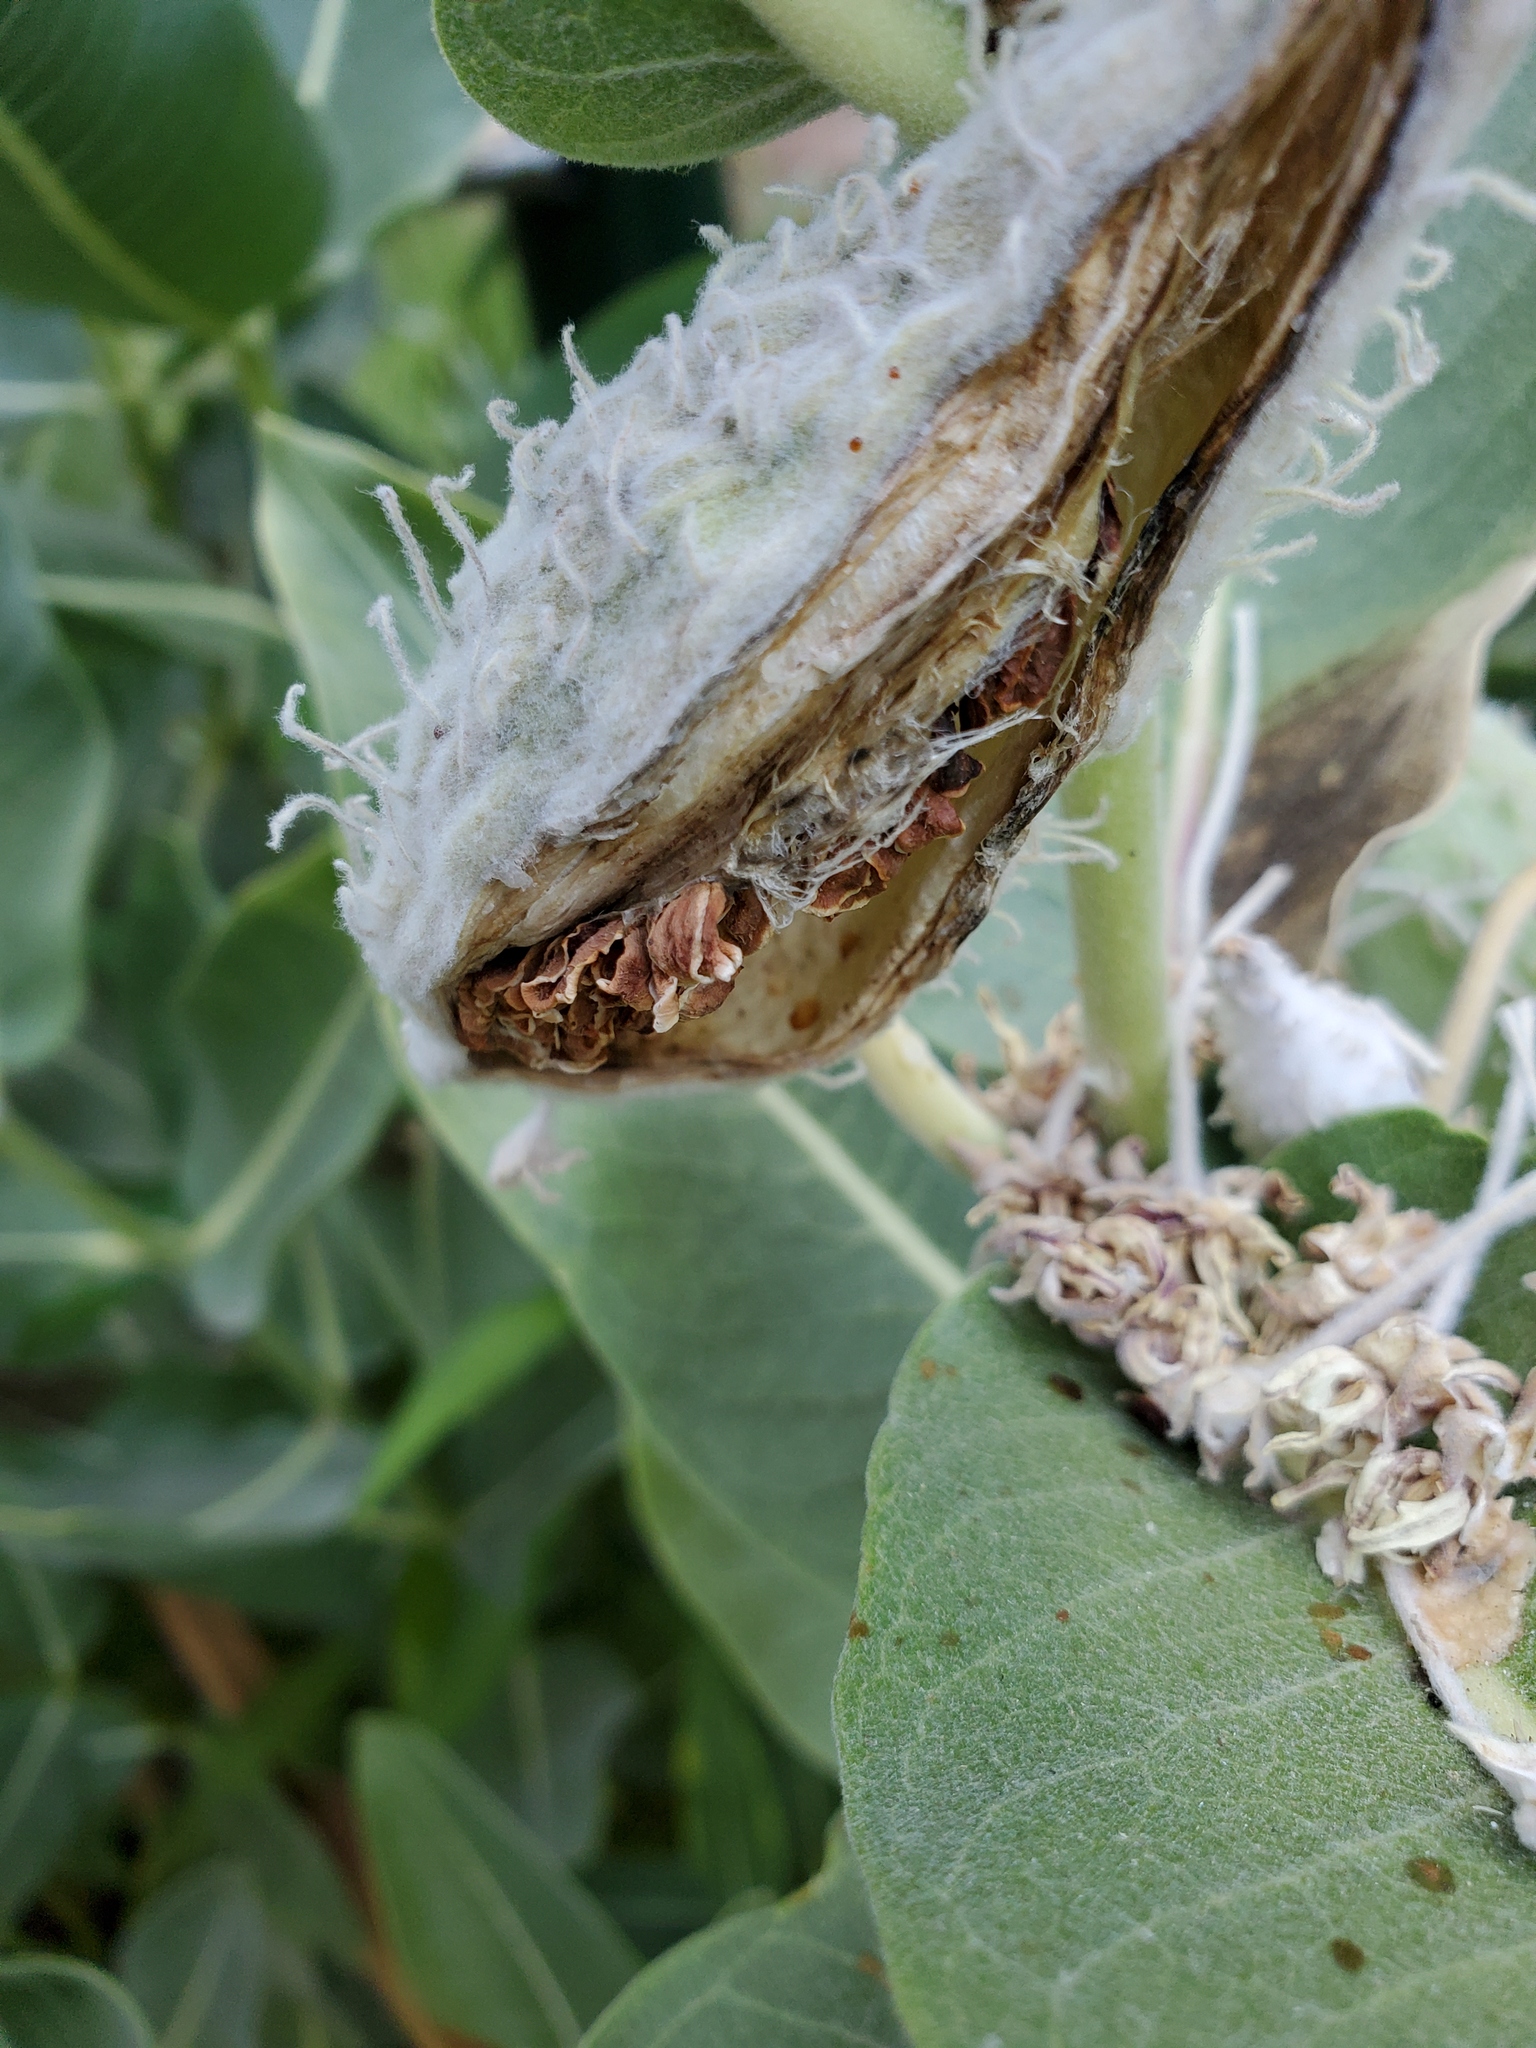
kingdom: Plantae
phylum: Tracheophyta
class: Magnoliopsida
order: Gentianales
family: Apocynaceae
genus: Asclepias
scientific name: Asclepias speciosa
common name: Showy milkweed
